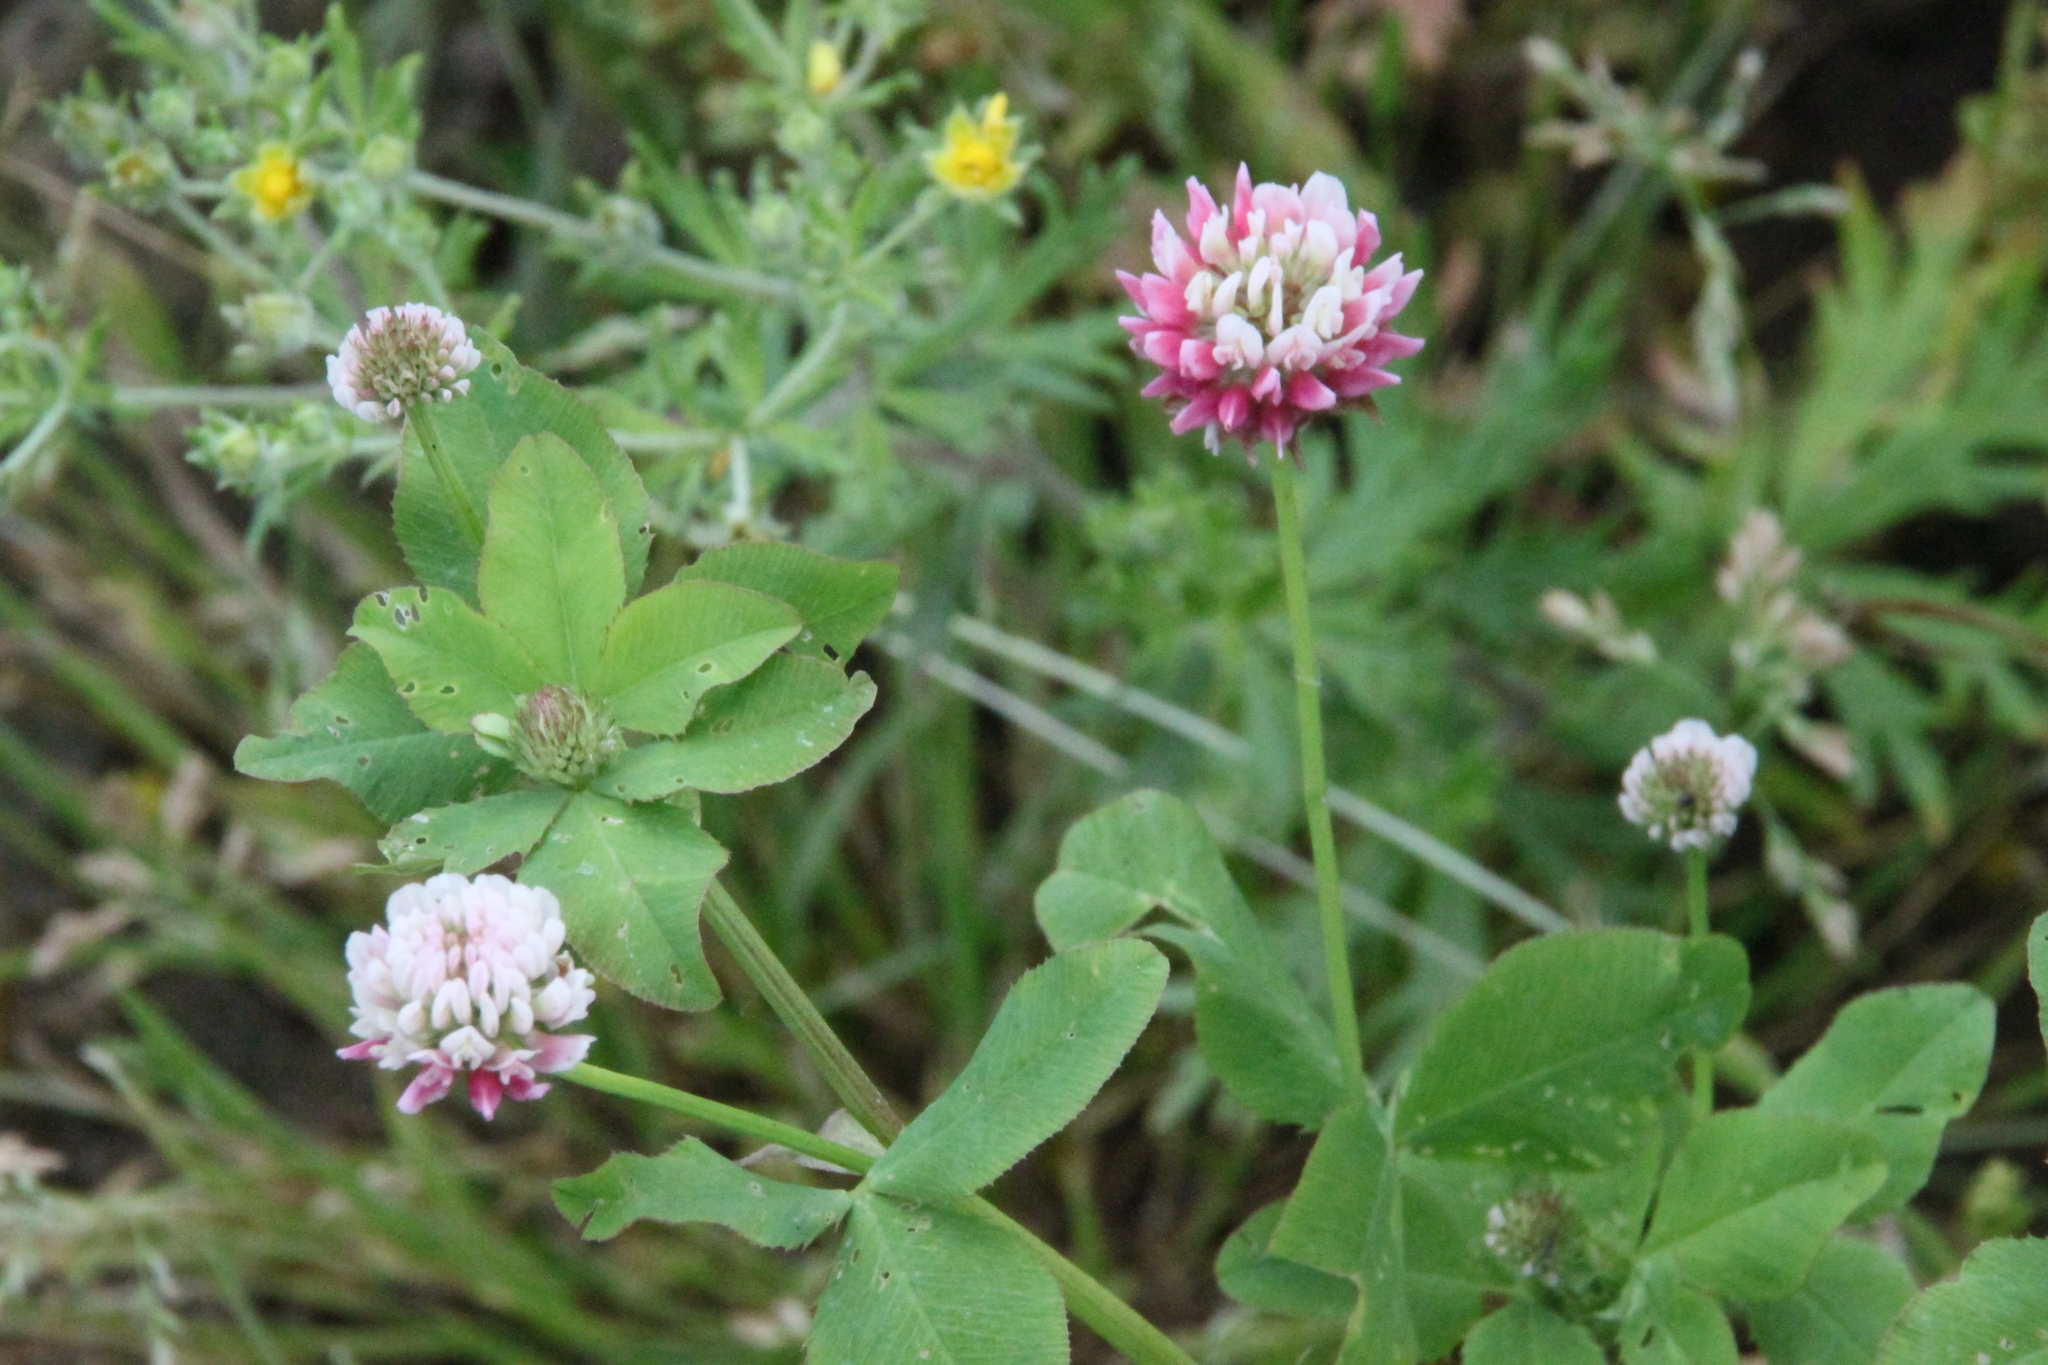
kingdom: Plantae
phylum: Tracheophyta
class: Magnoliopsida
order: Fabales
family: Fabaceae
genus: Trifolium
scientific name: Trifolium hybridum
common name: Alsike clover
